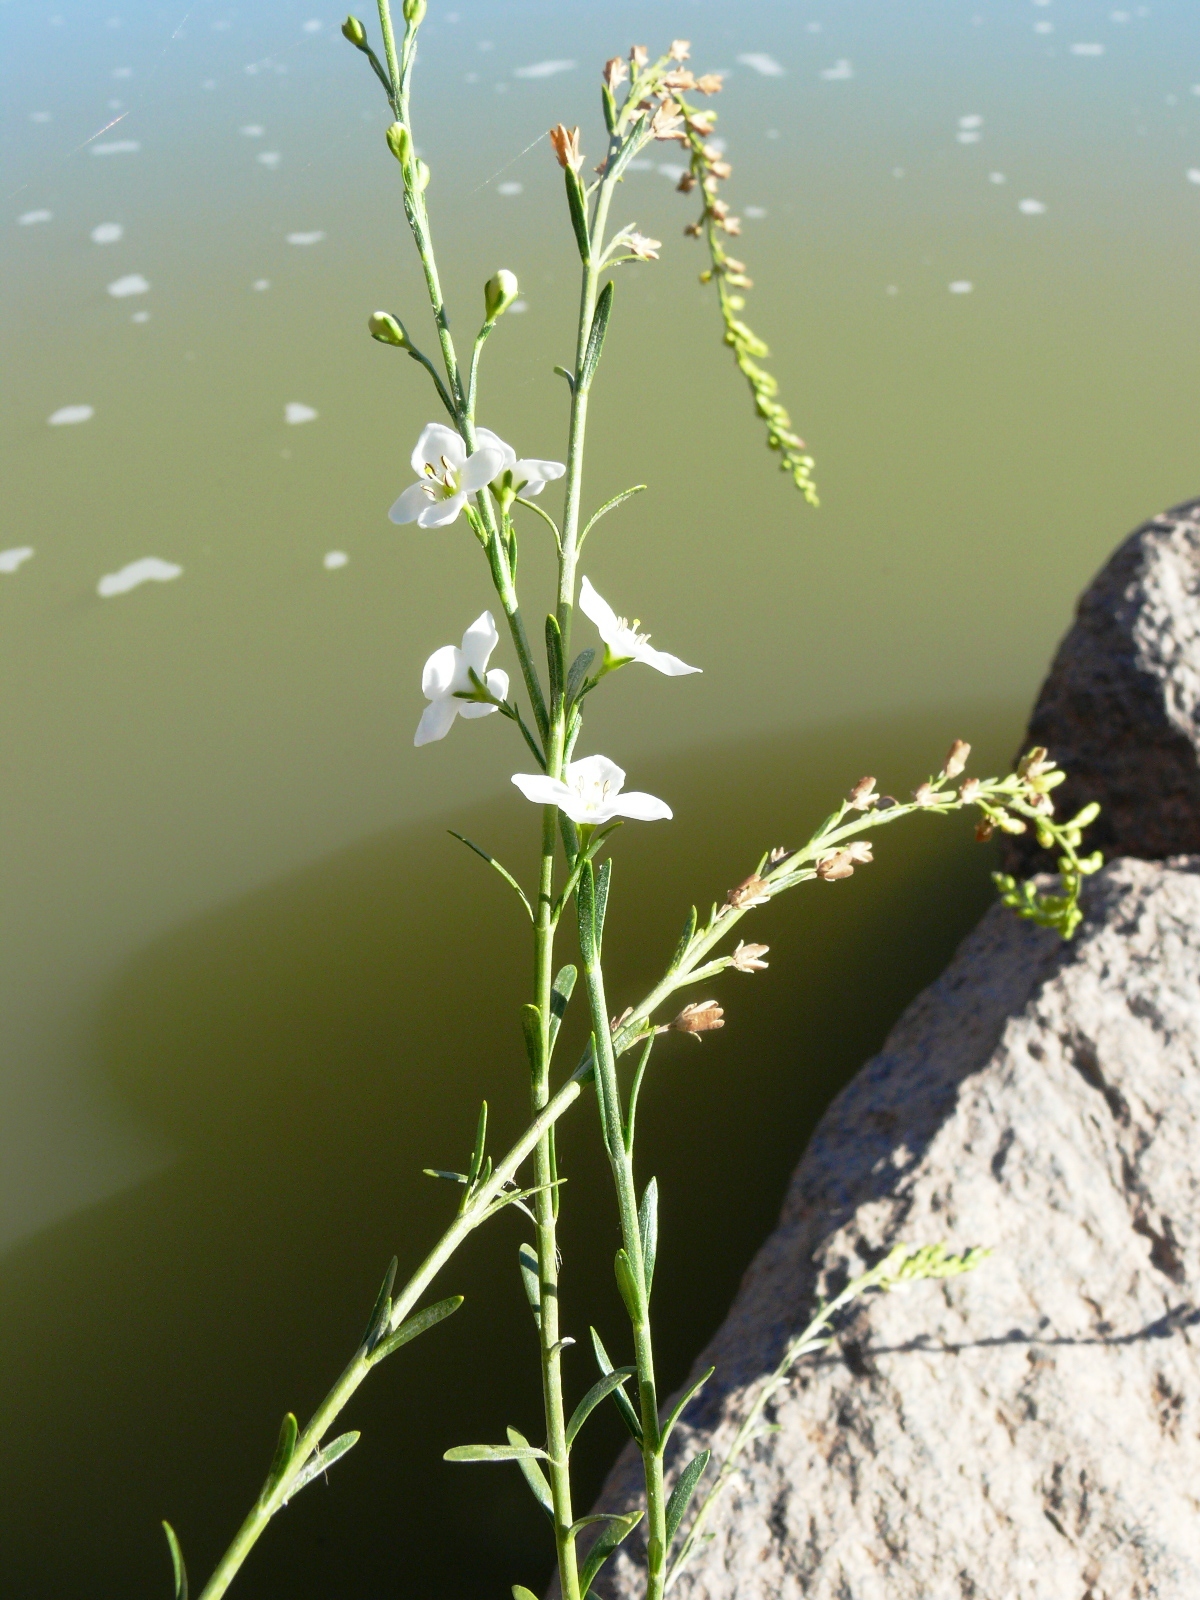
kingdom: Plantae
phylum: Tracheophyta
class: Magnoliopsida
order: Lamiales
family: Scrophulariaceae
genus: Buddleja
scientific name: Buddleja virgata
